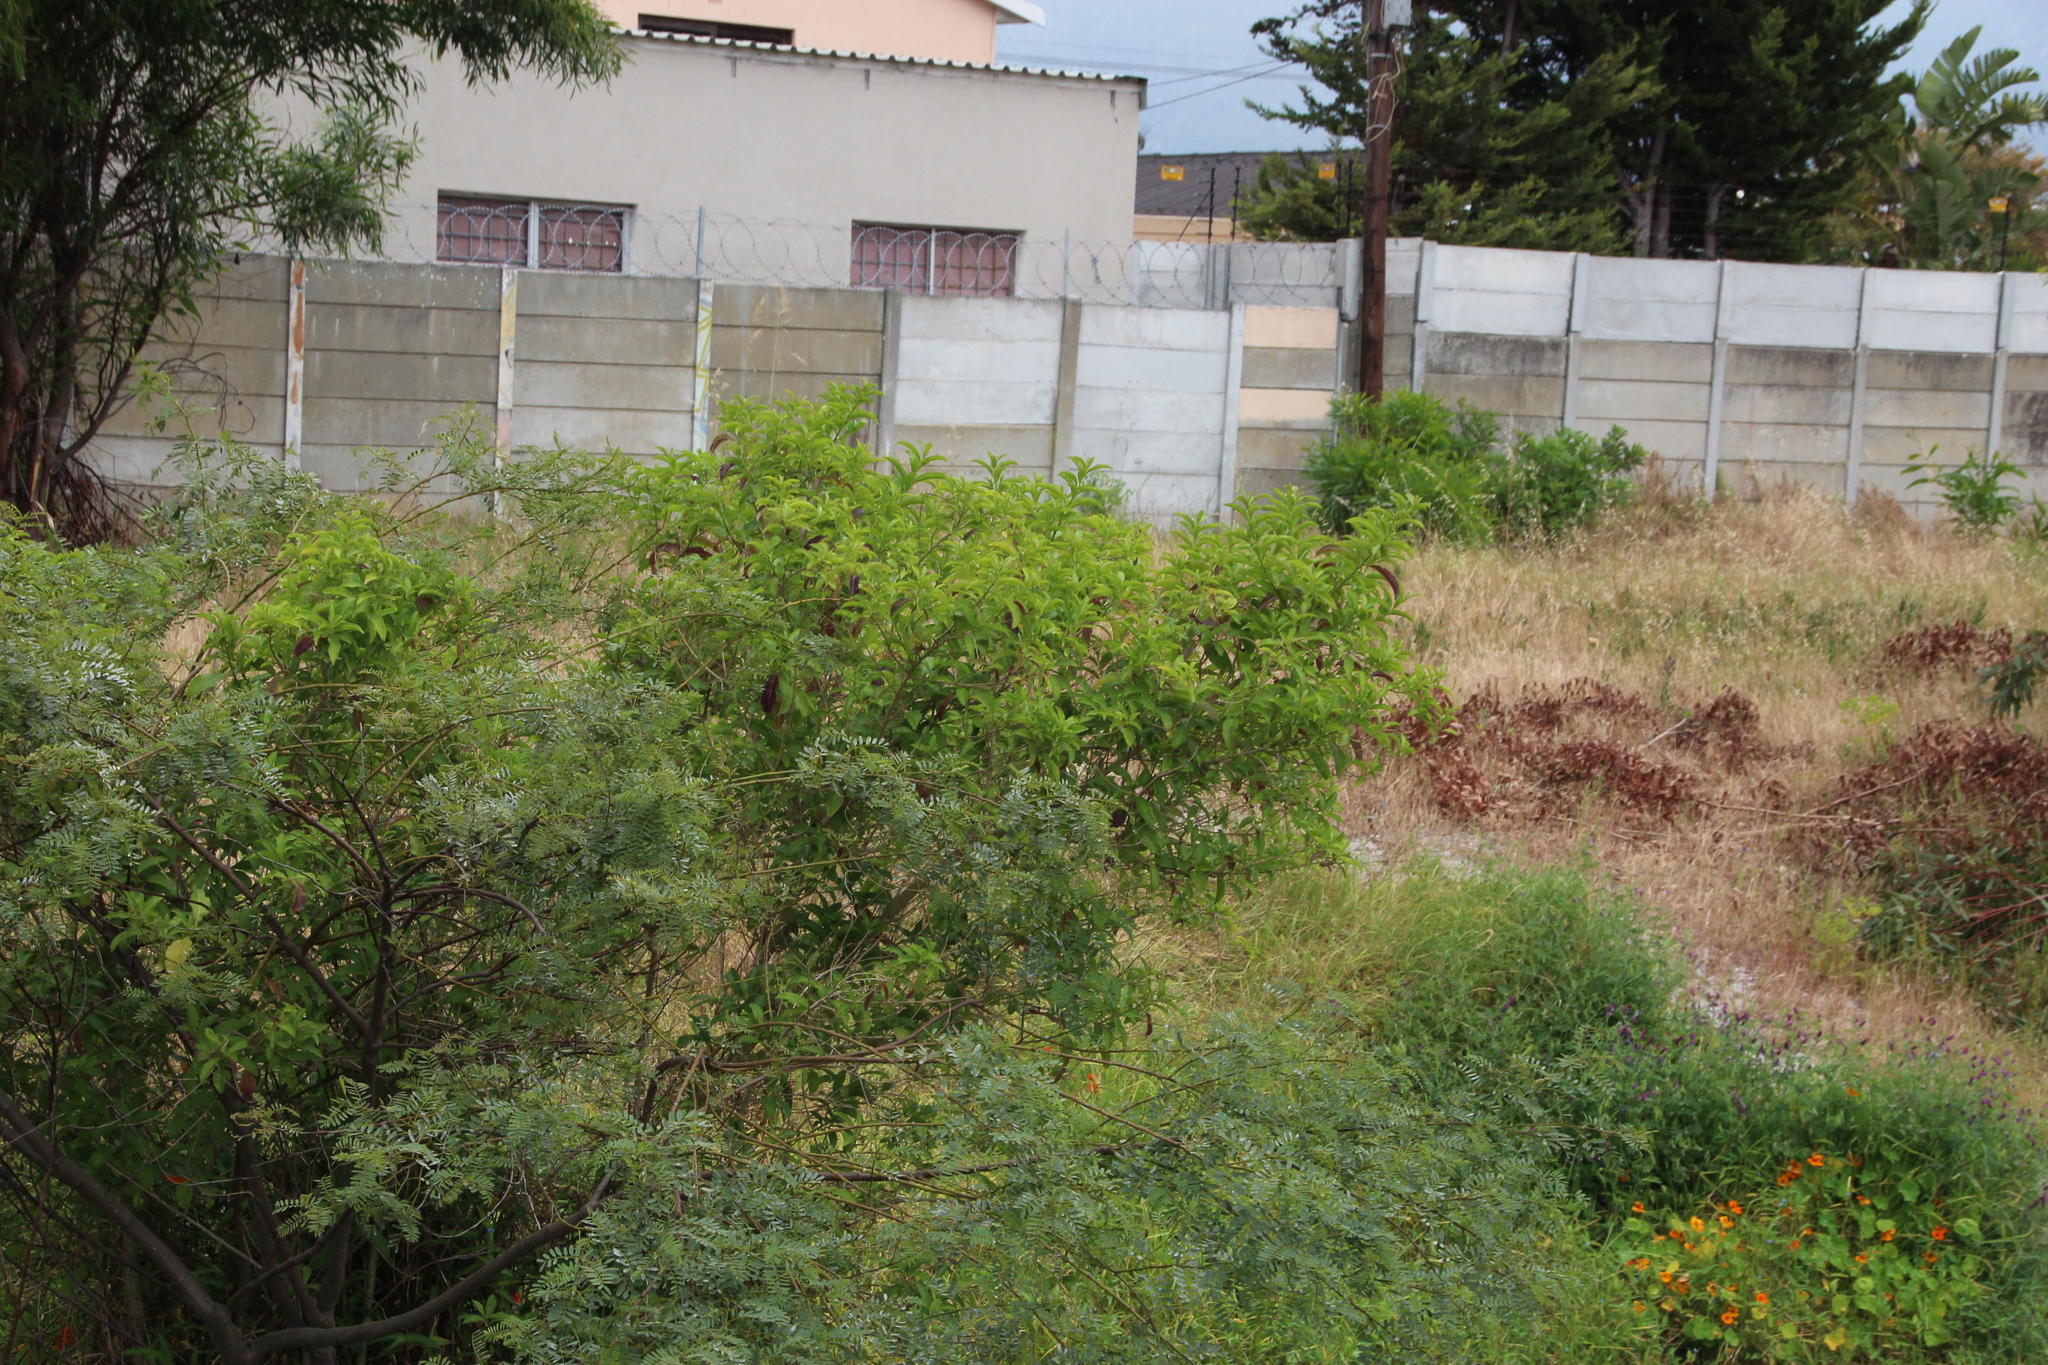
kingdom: Plantae
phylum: Tracheophyta
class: Magnoliopsida
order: Solanales
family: Solanaceae
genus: Cestrum
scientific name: Cestrum laevigatum
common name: Inkberry
